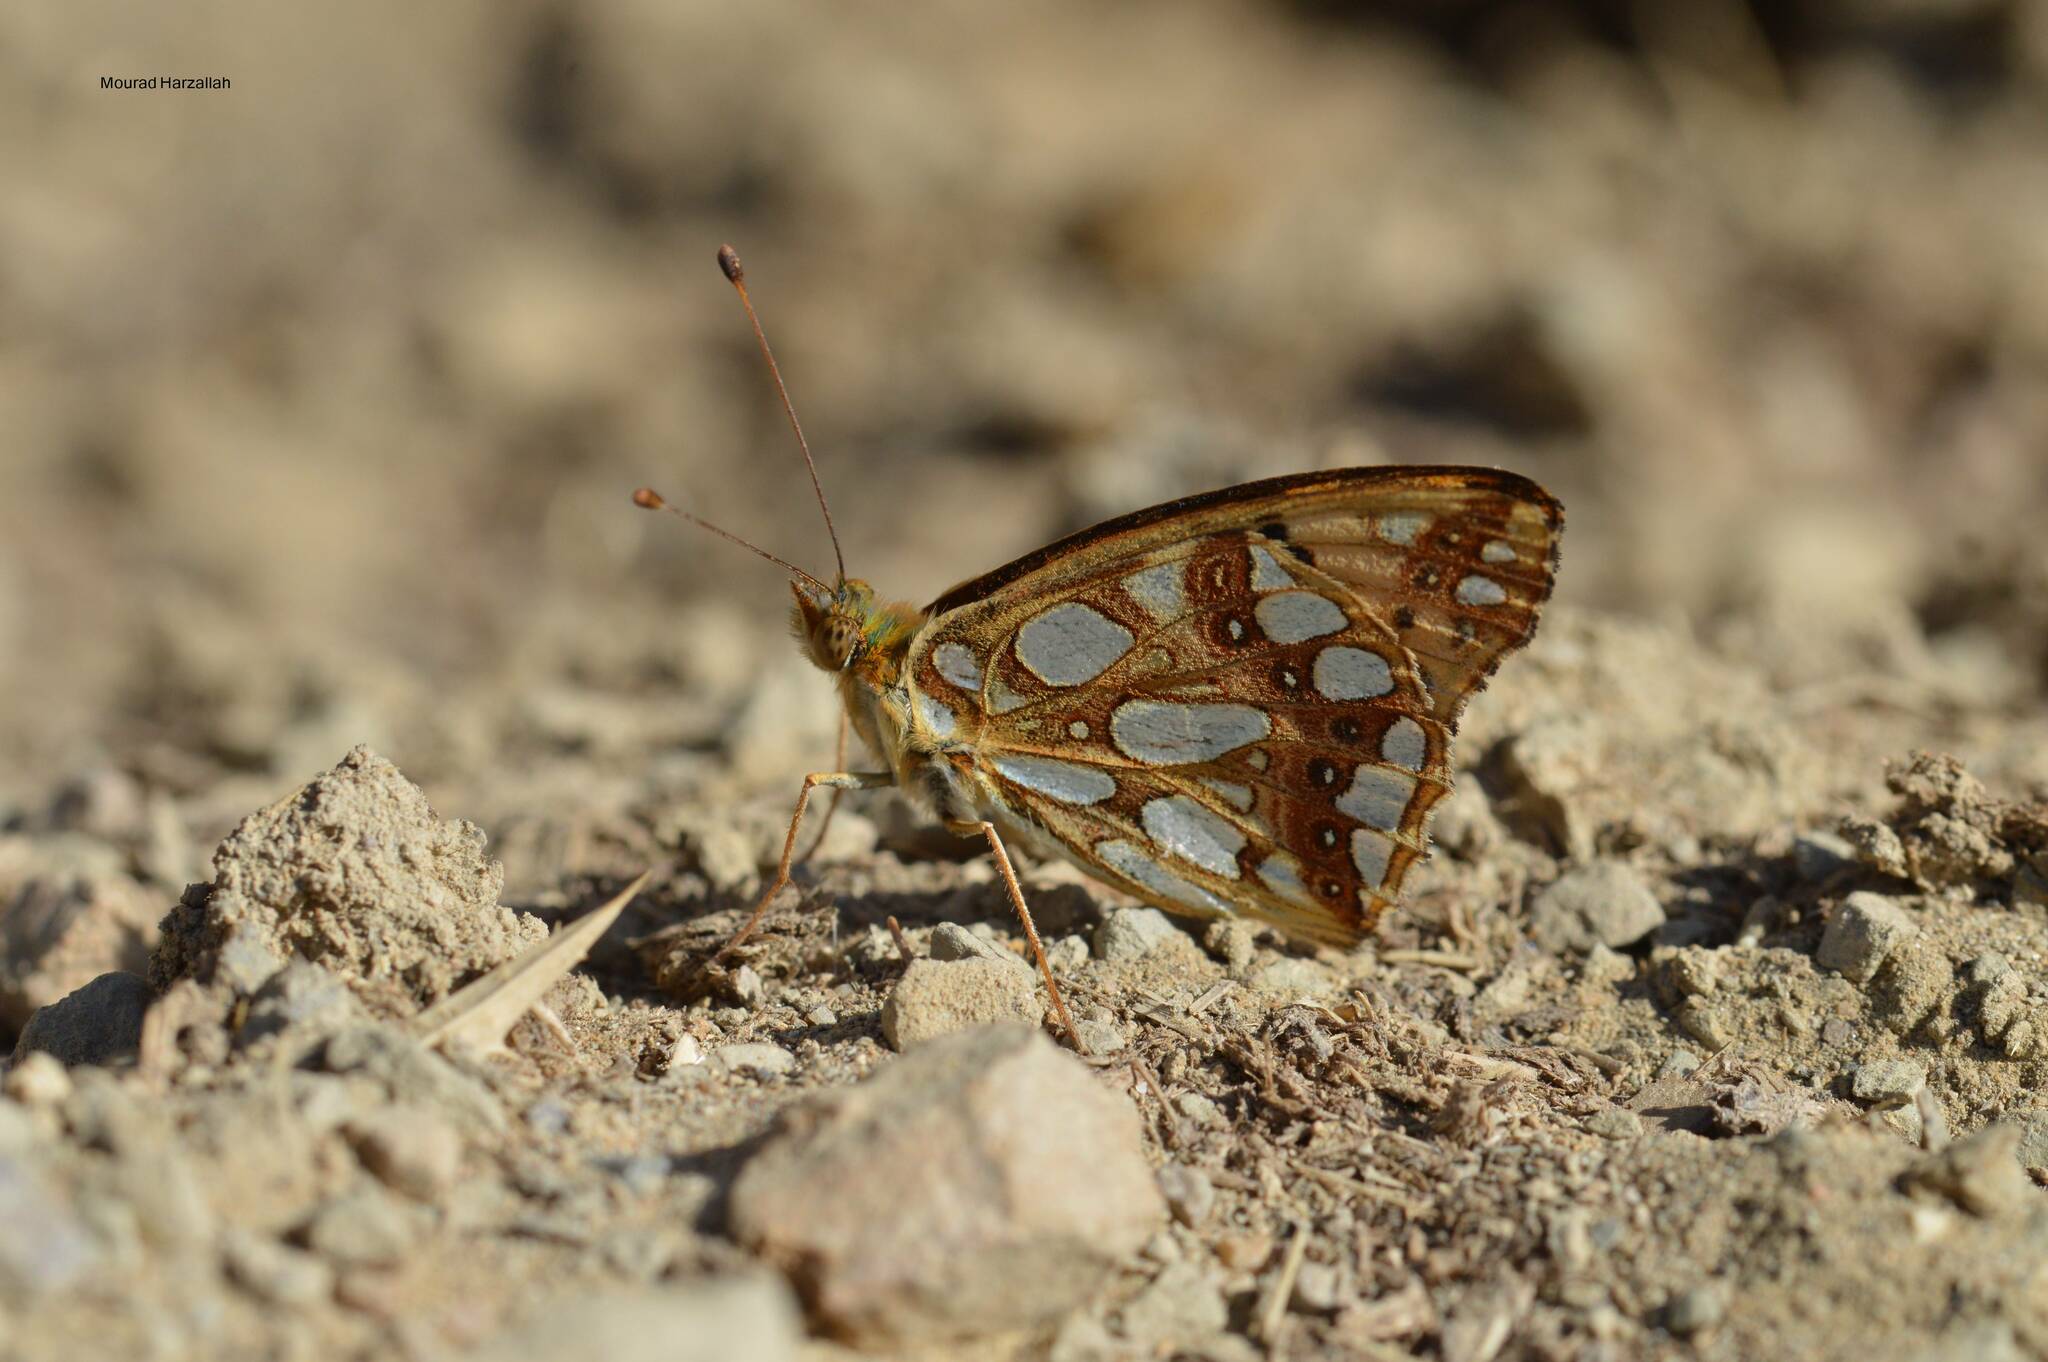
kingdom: Animalia
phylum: Arthropoda
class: Insecta
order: Lepidoptera
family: Nymphalidae
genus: Issoria
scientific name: Issoria lathonia
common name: Queen of spain fritillary
